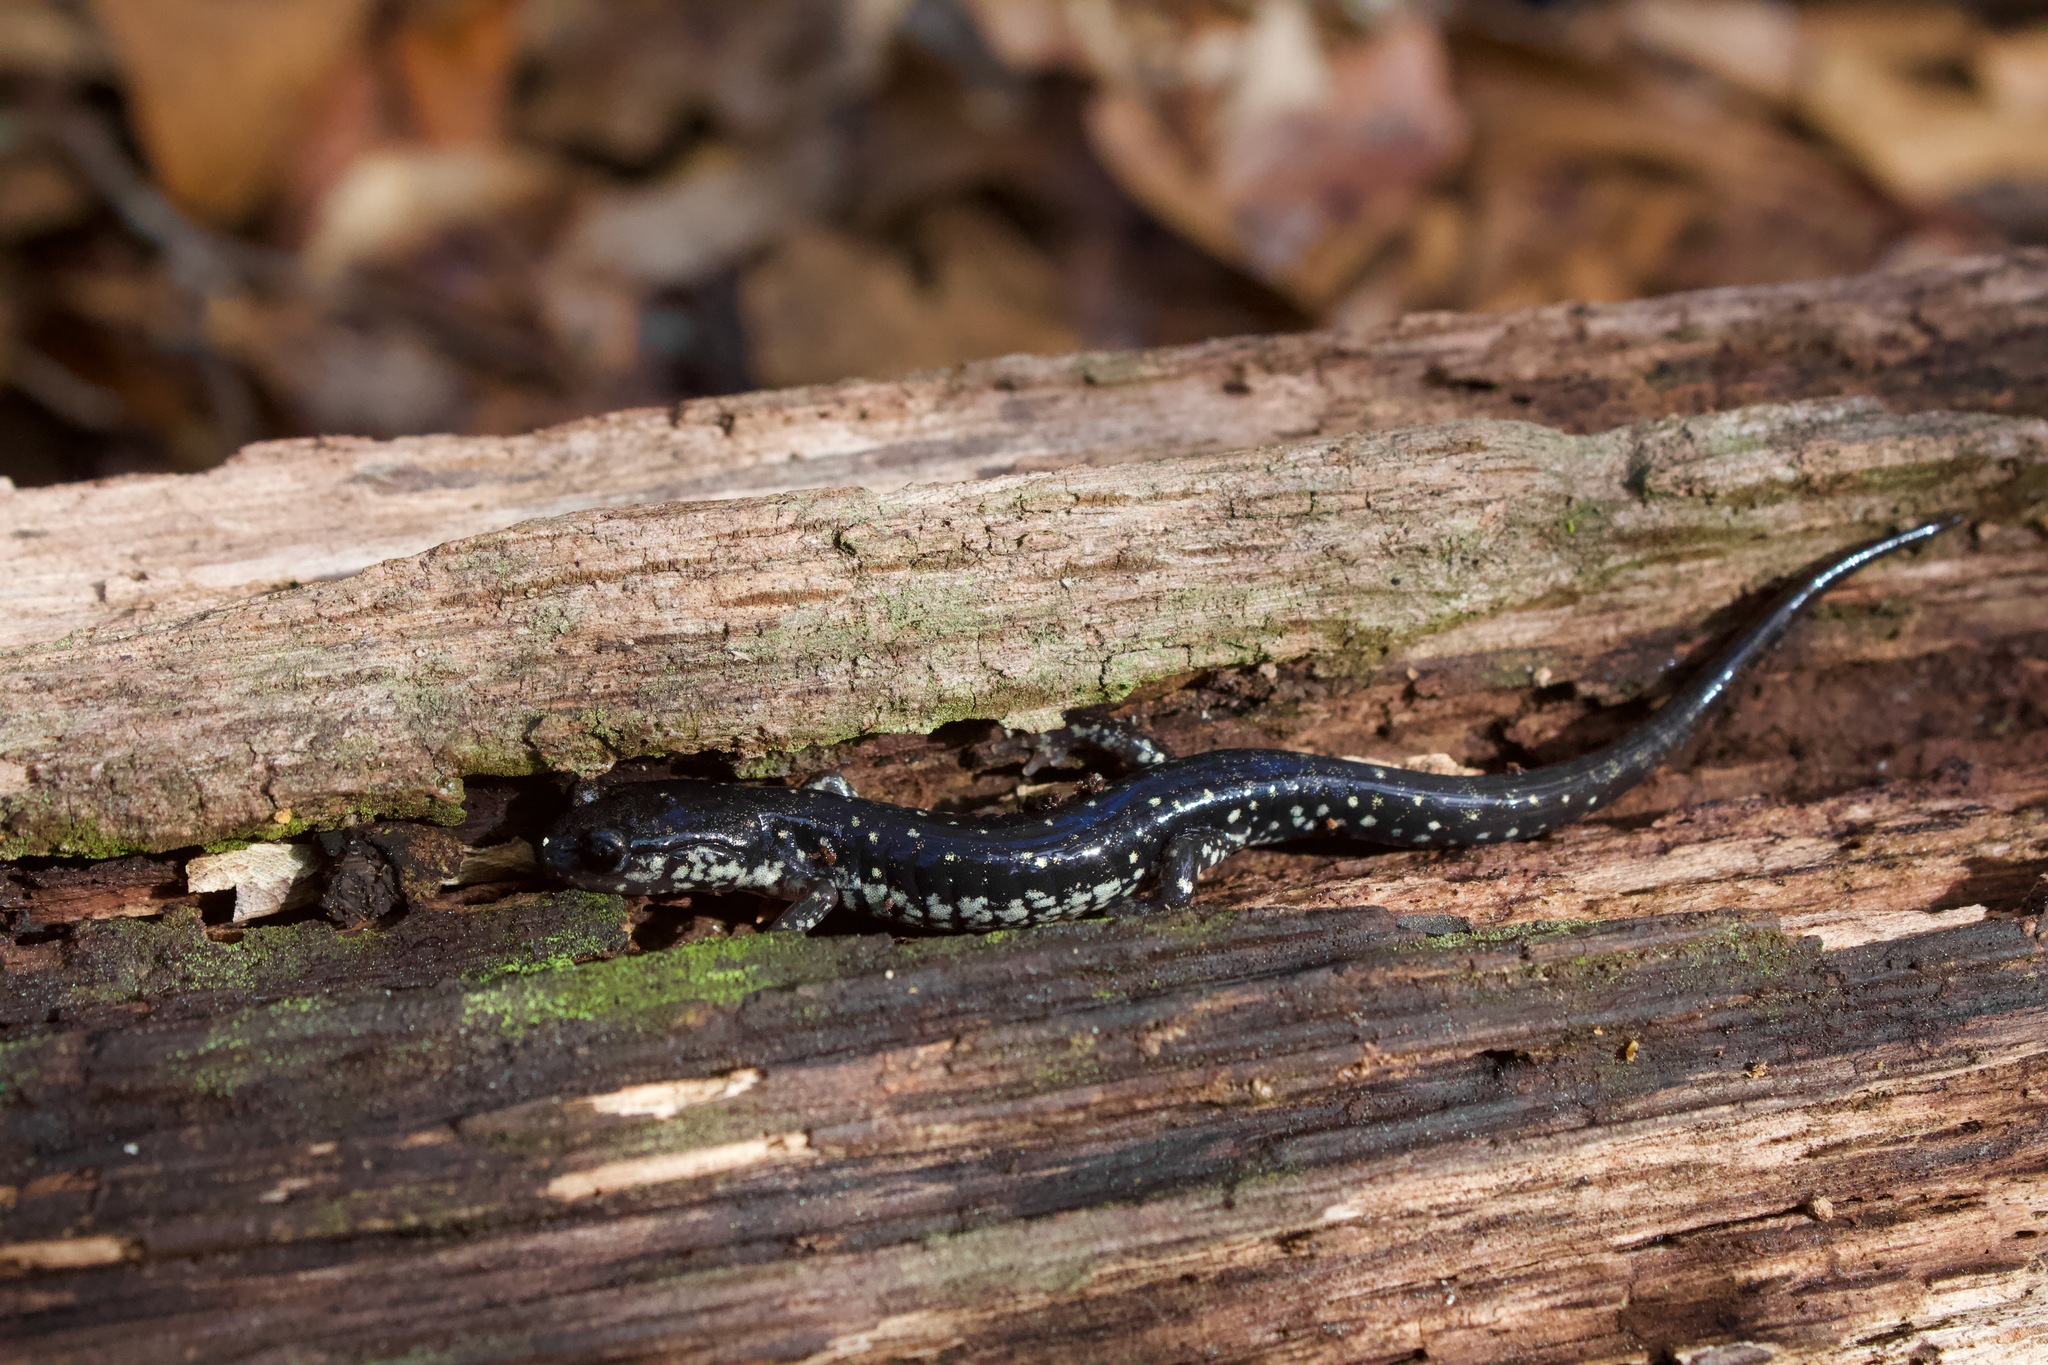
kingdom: Animalia
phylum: Chordata
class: Amphibia
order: Caudata
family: Plethodontidae
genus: Plethodon
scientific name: Plethodon mississippi
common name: Mississippi slimy salamander
